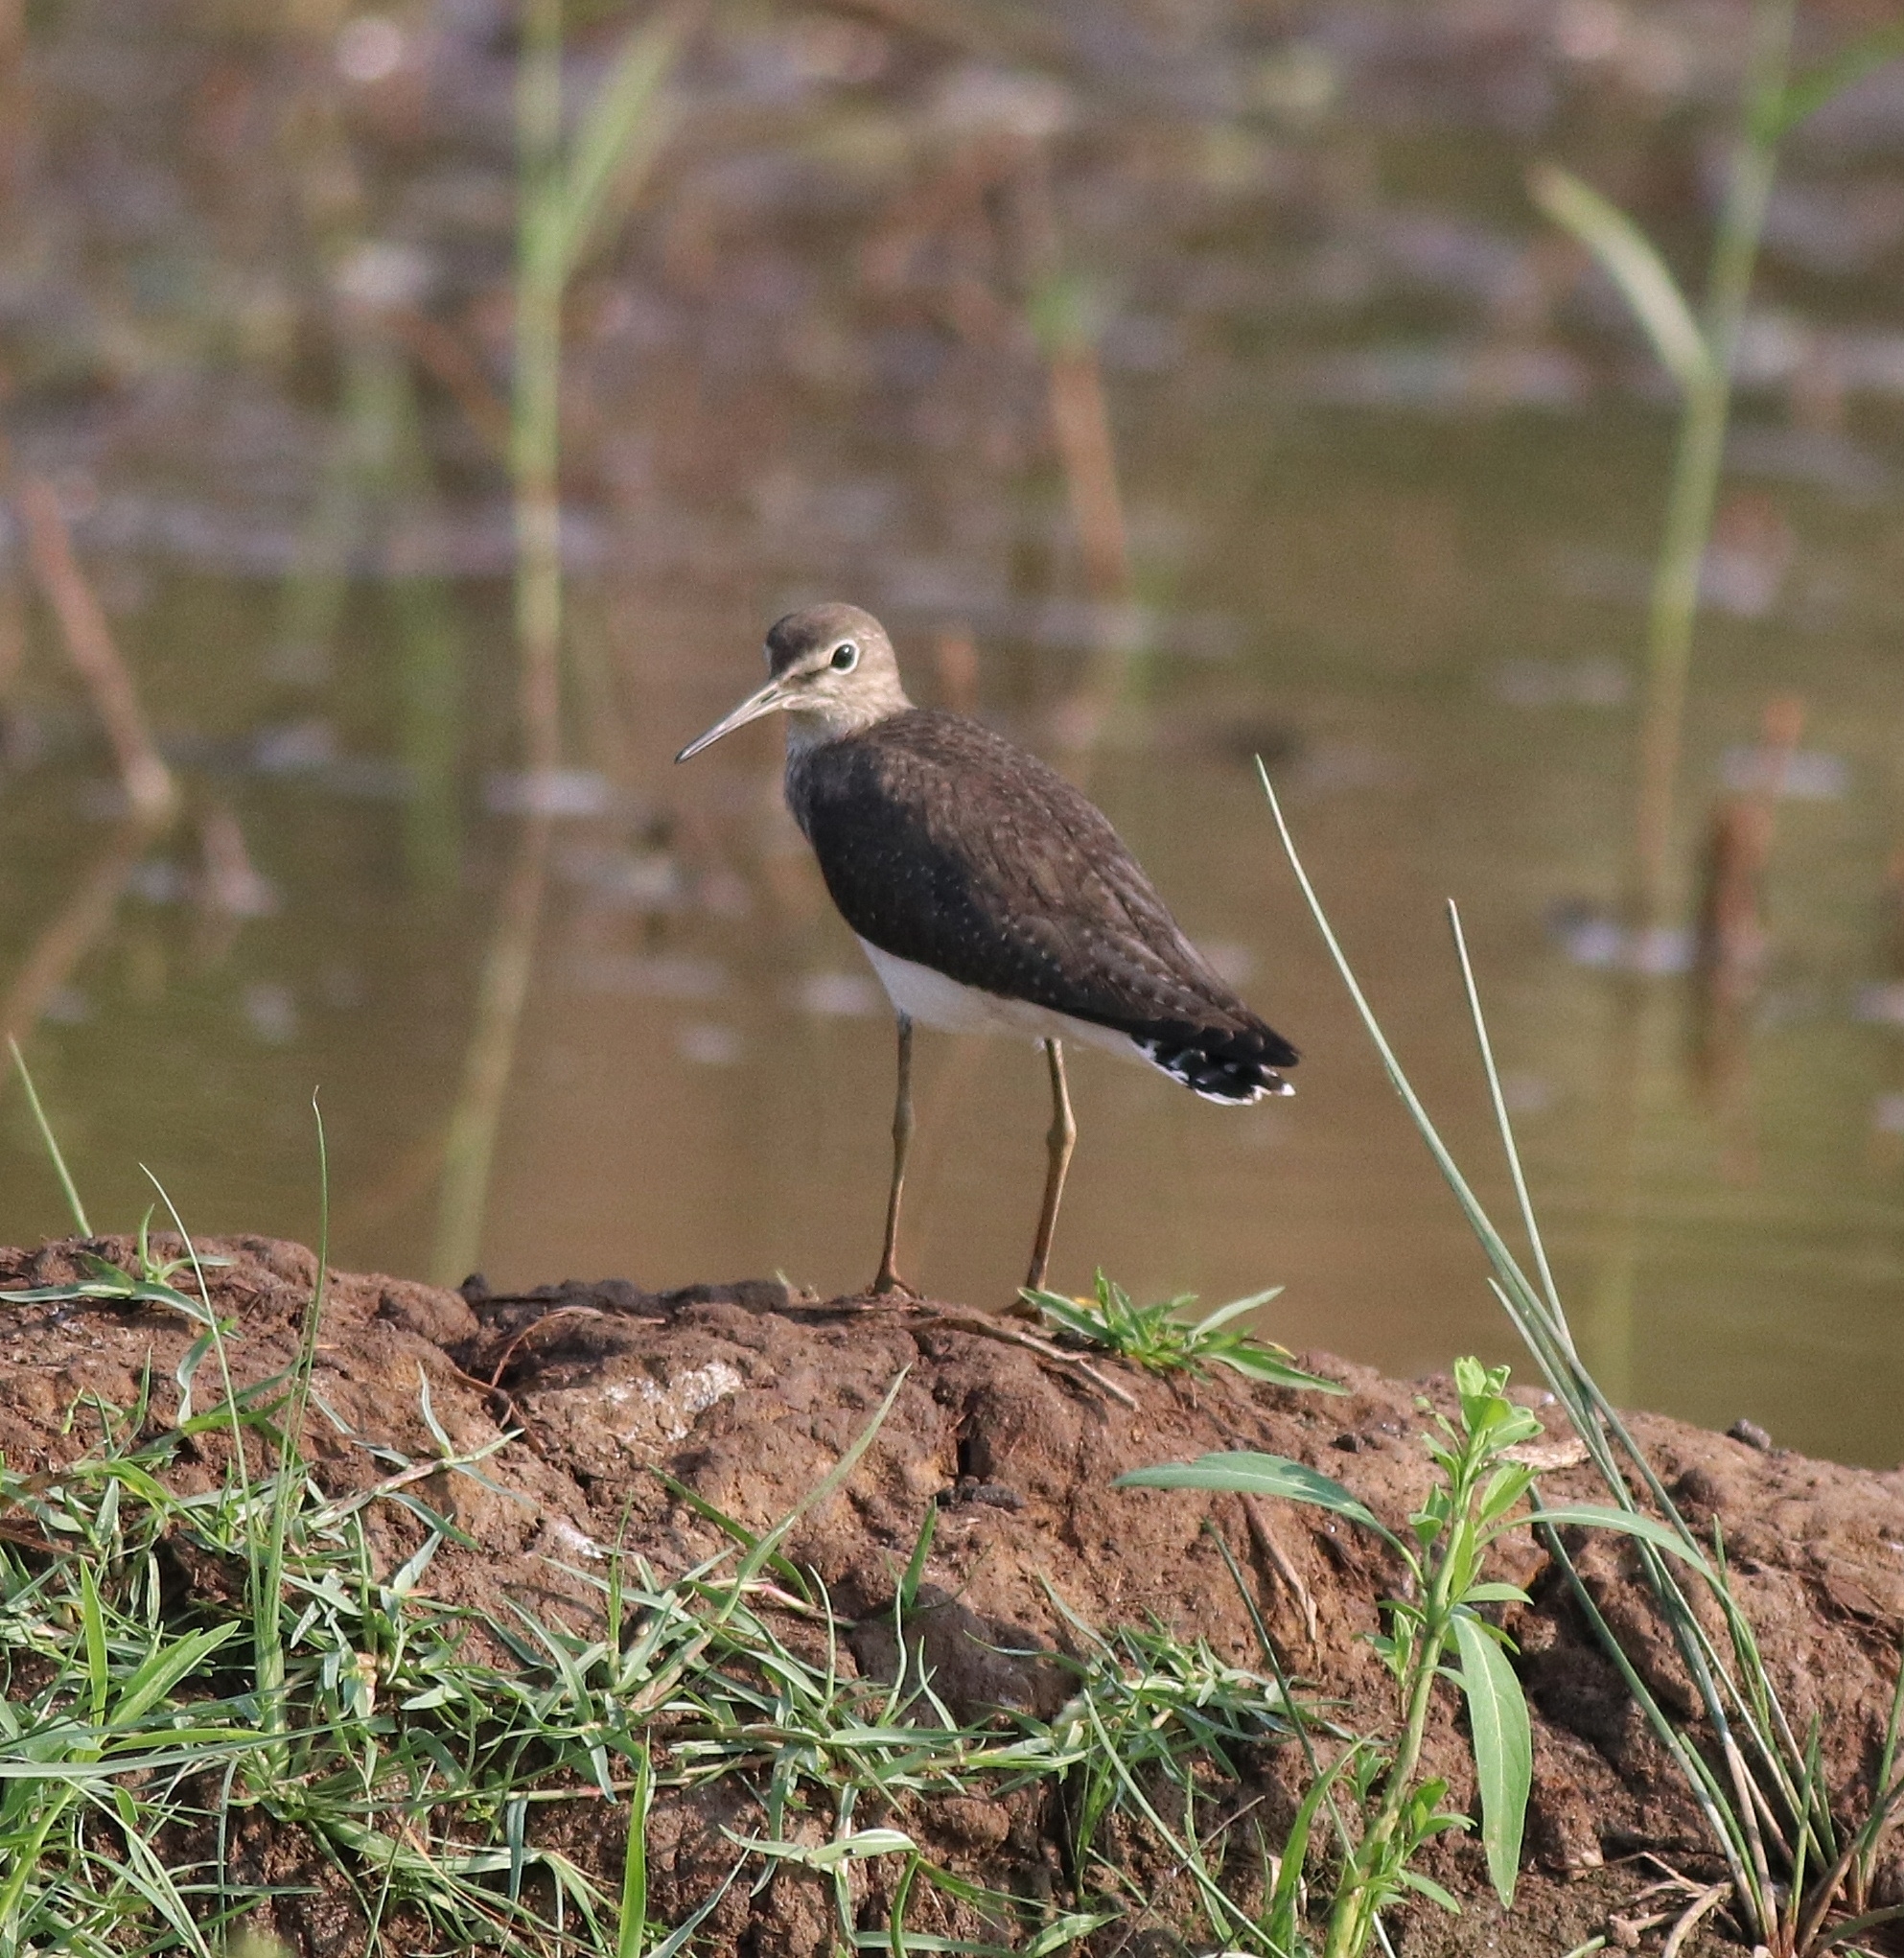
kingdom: Animalia
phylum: Chordata
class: Aves
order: Charadriiformes
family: Scolopacidae
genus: Tringa
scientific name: Tringa ochropus
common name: Green sandpiper
